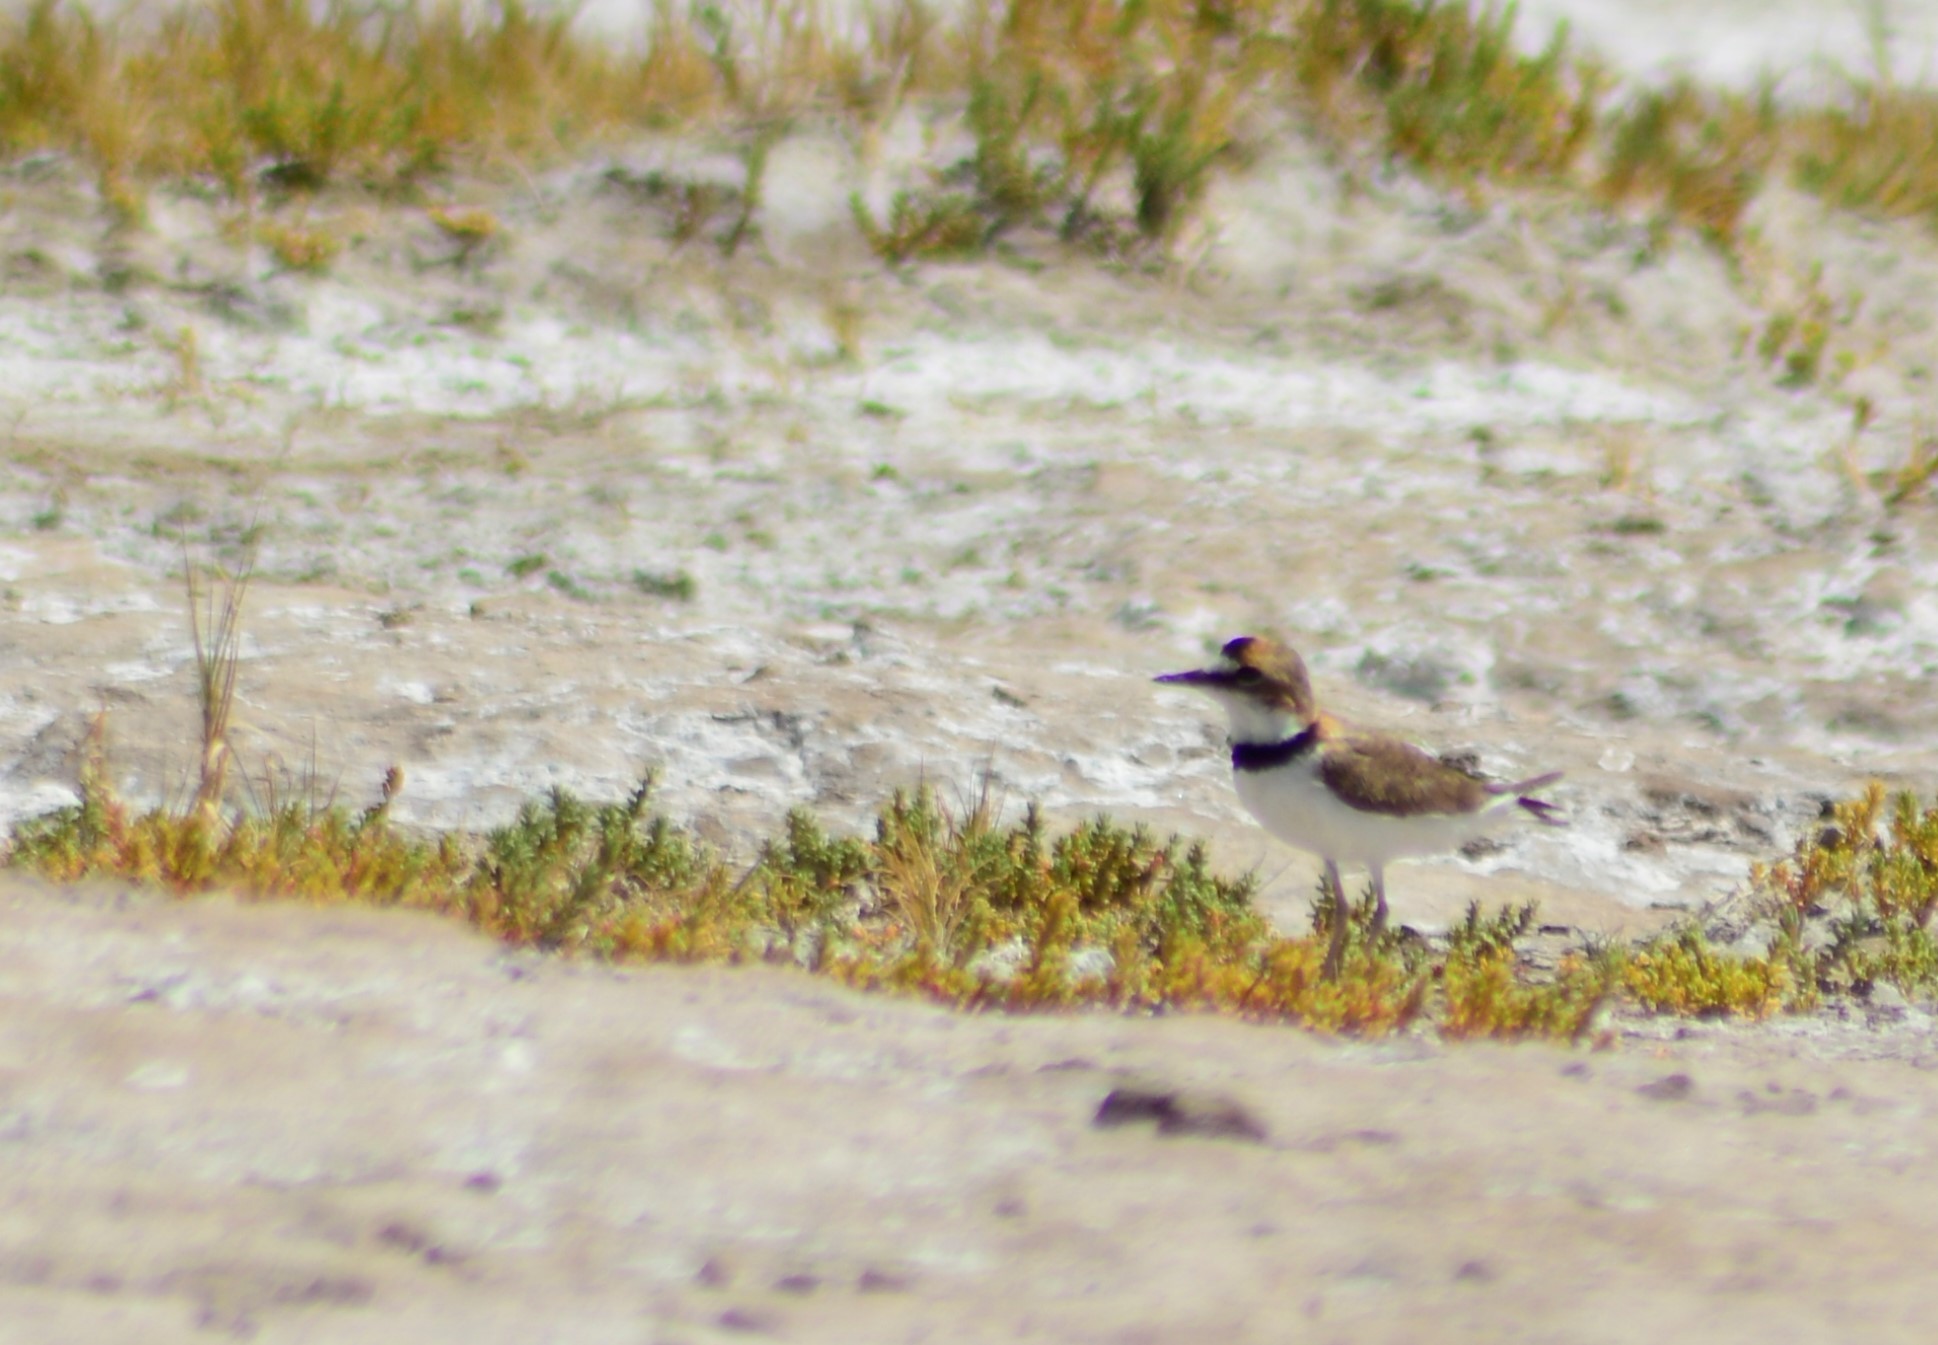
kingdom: Animalia
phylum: Chordata
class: Aves
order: Charadriiformes
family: Charadriidae
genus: Anarhynchus
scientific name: Anarhynchus
